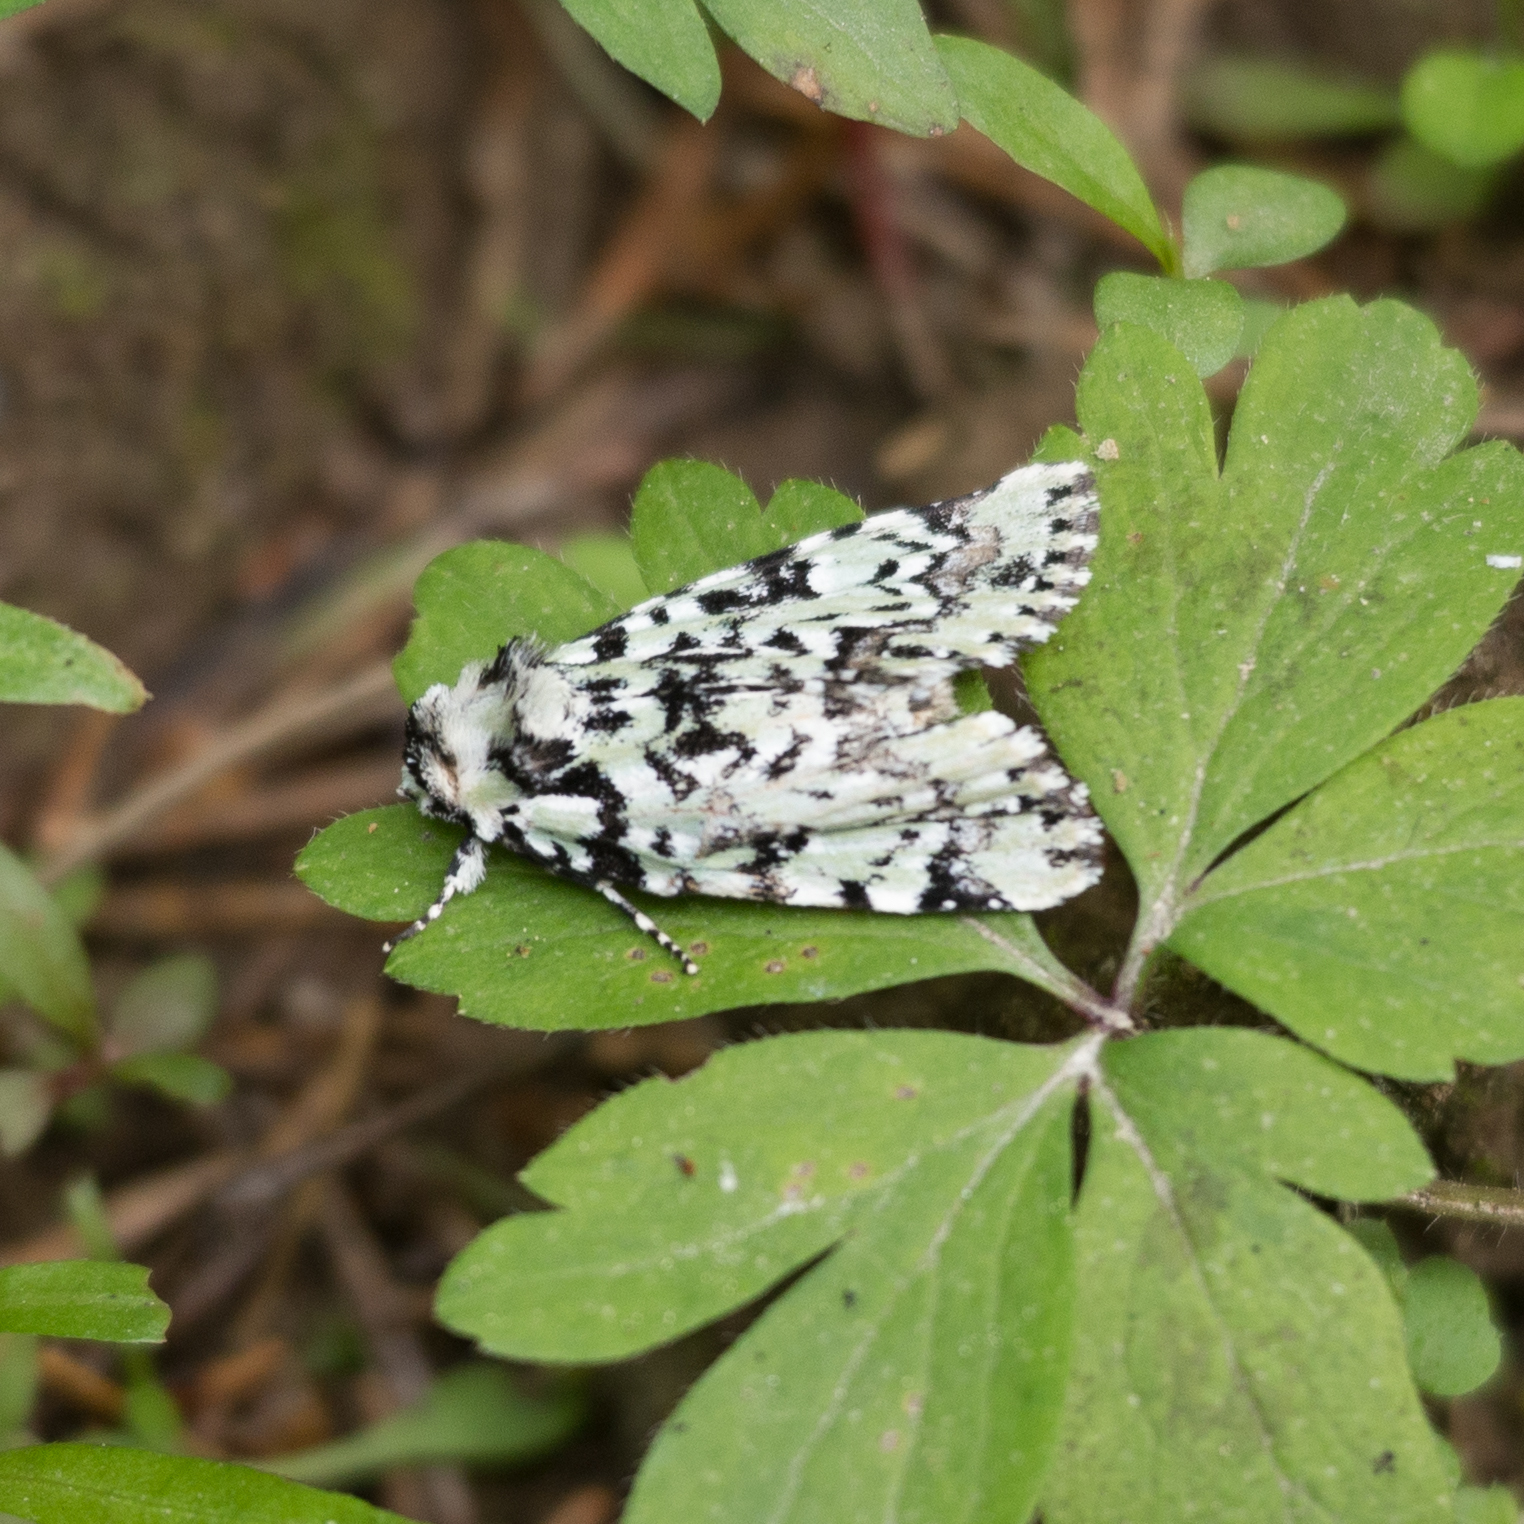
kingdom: Animalia
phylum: Arthropoda
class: Insecta
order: Lepidoptera
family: Noctuidae
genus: Moma
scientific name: Moma alpium
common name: Scarce merveille du jour
